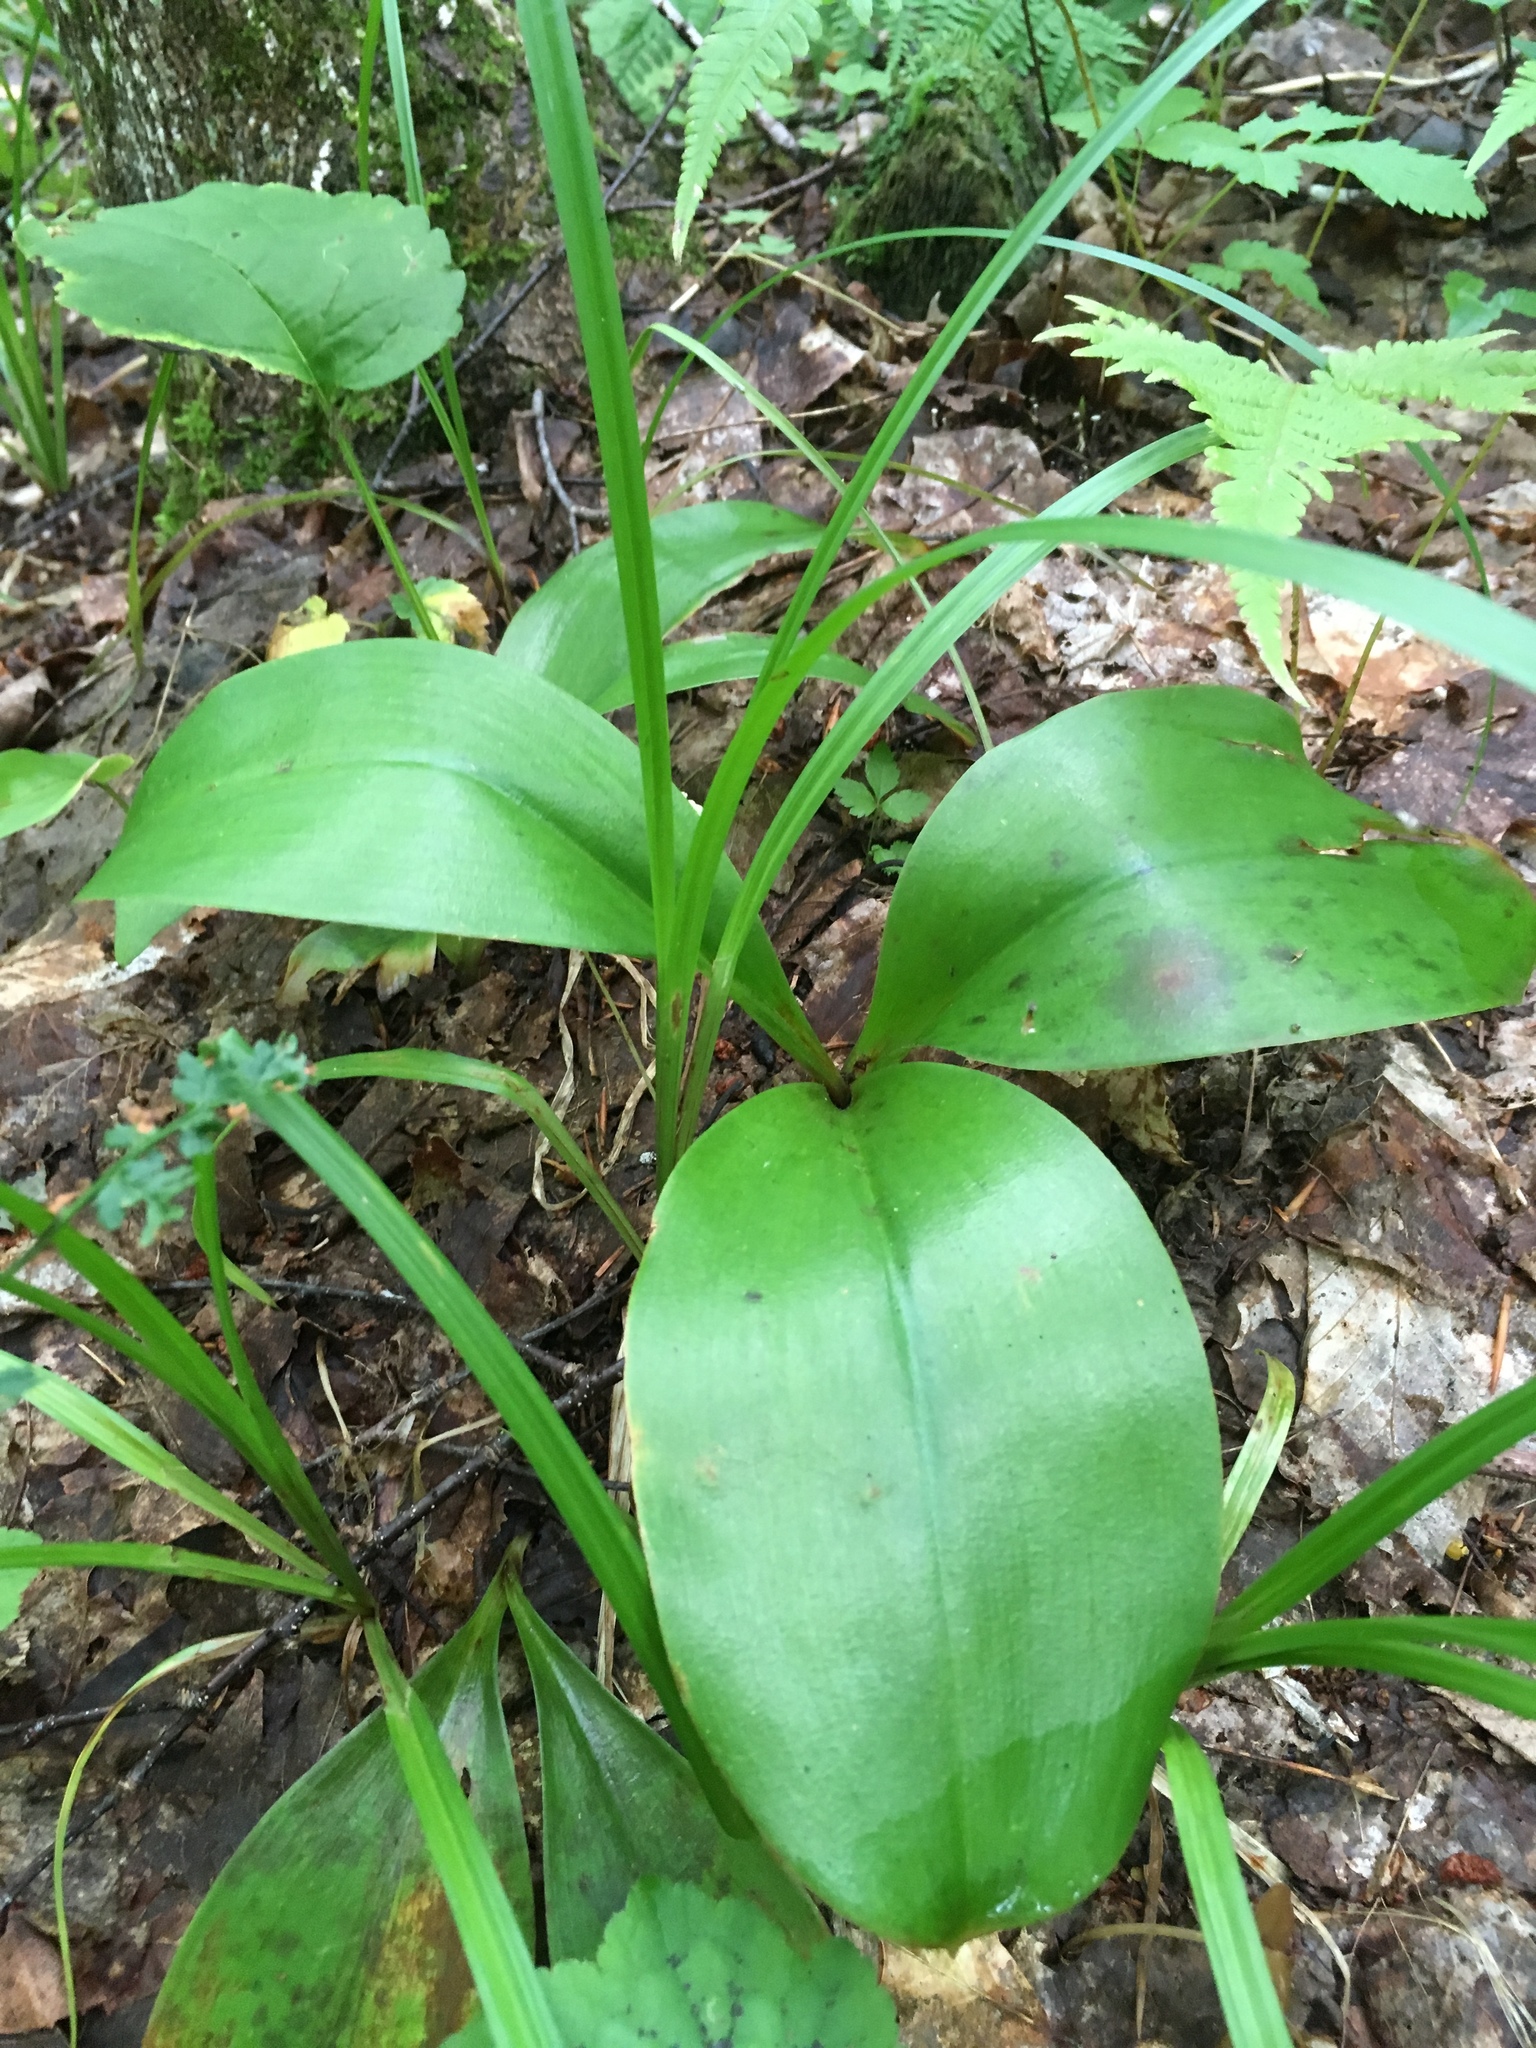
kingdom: Plantae
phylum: Tracheophyta
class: Liliopsida
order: Liliales
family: Liliaceae
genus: Clintonia
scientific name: Clintonia borealis
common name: Yellow clintonia
